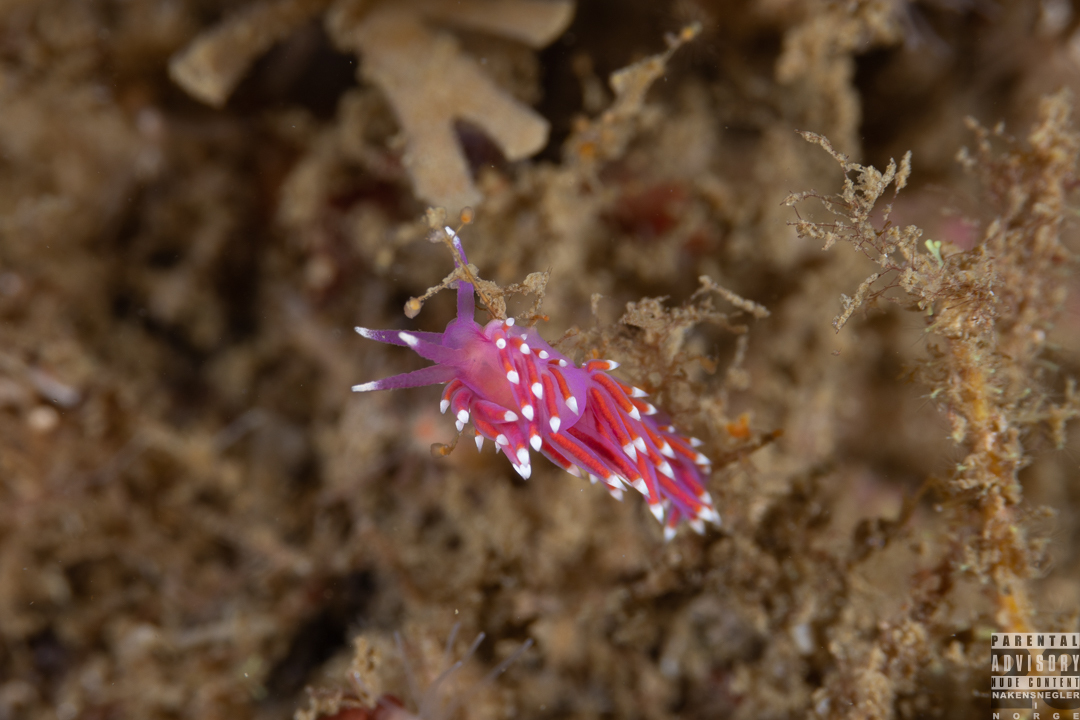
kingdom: Animalia
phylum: Mollusca
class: Gastropoda
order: Nudibranchia
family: Flabellinidae
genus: Edmundsella
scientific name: Edmundsella pedata
